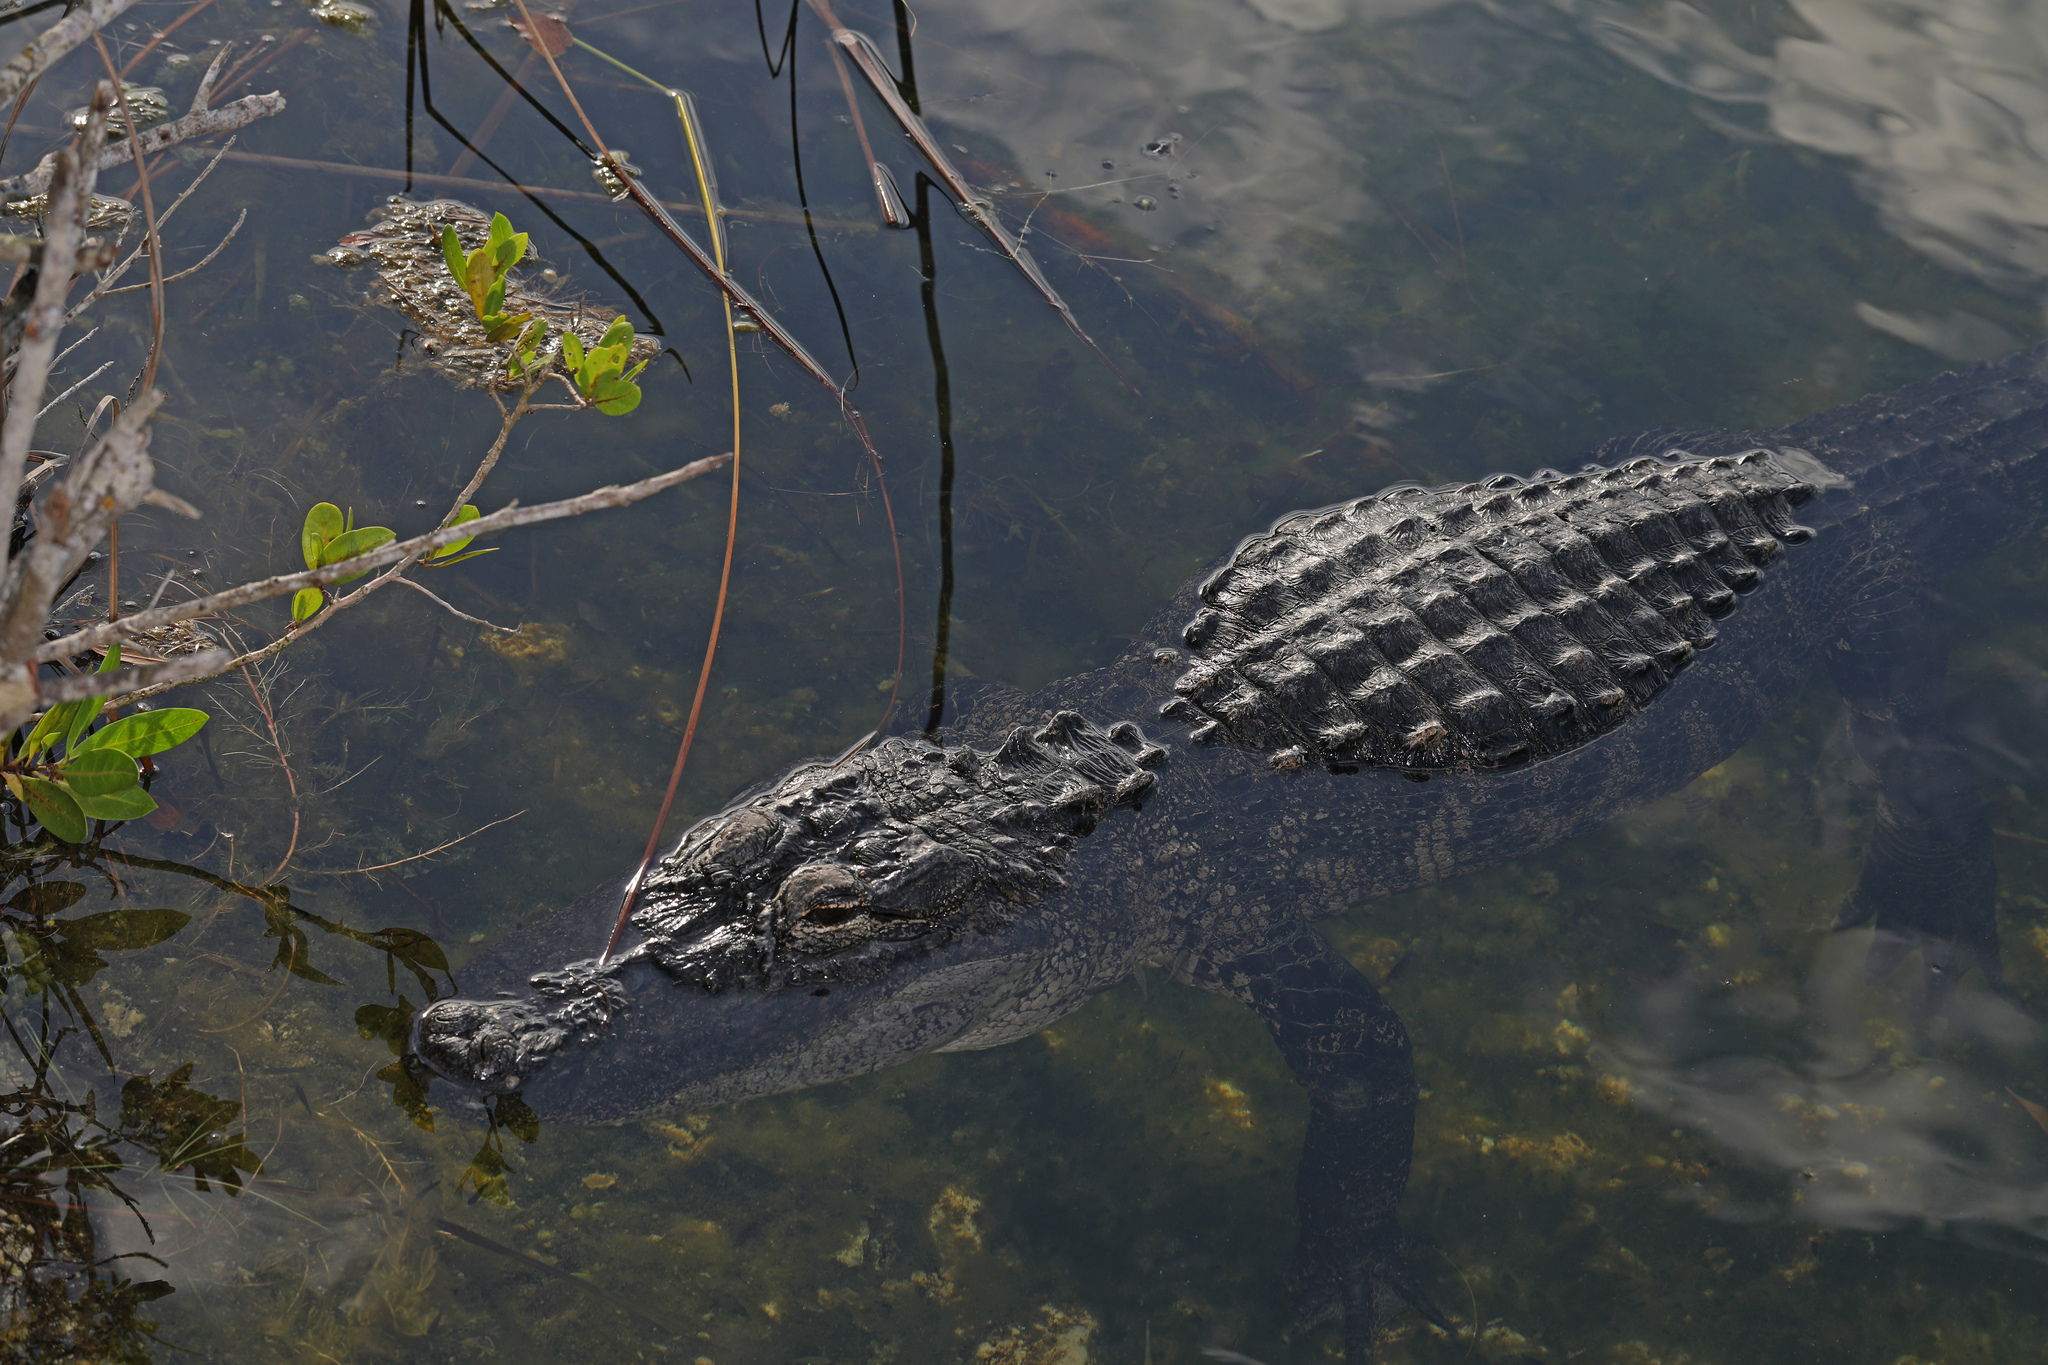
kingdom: Animalia
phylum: Chordata
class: Crocodylia
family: Alligatoridae
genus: Alligator
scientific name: Alligator mississippiensis
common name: American alligator
